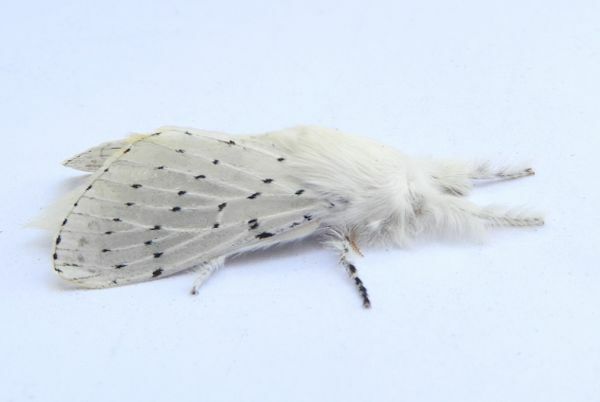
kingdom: Animalia
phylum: Arthropoda
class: Insecta
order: Lepidoptera
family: Lasiocampidae
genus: Artace
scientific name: Artace colaria
